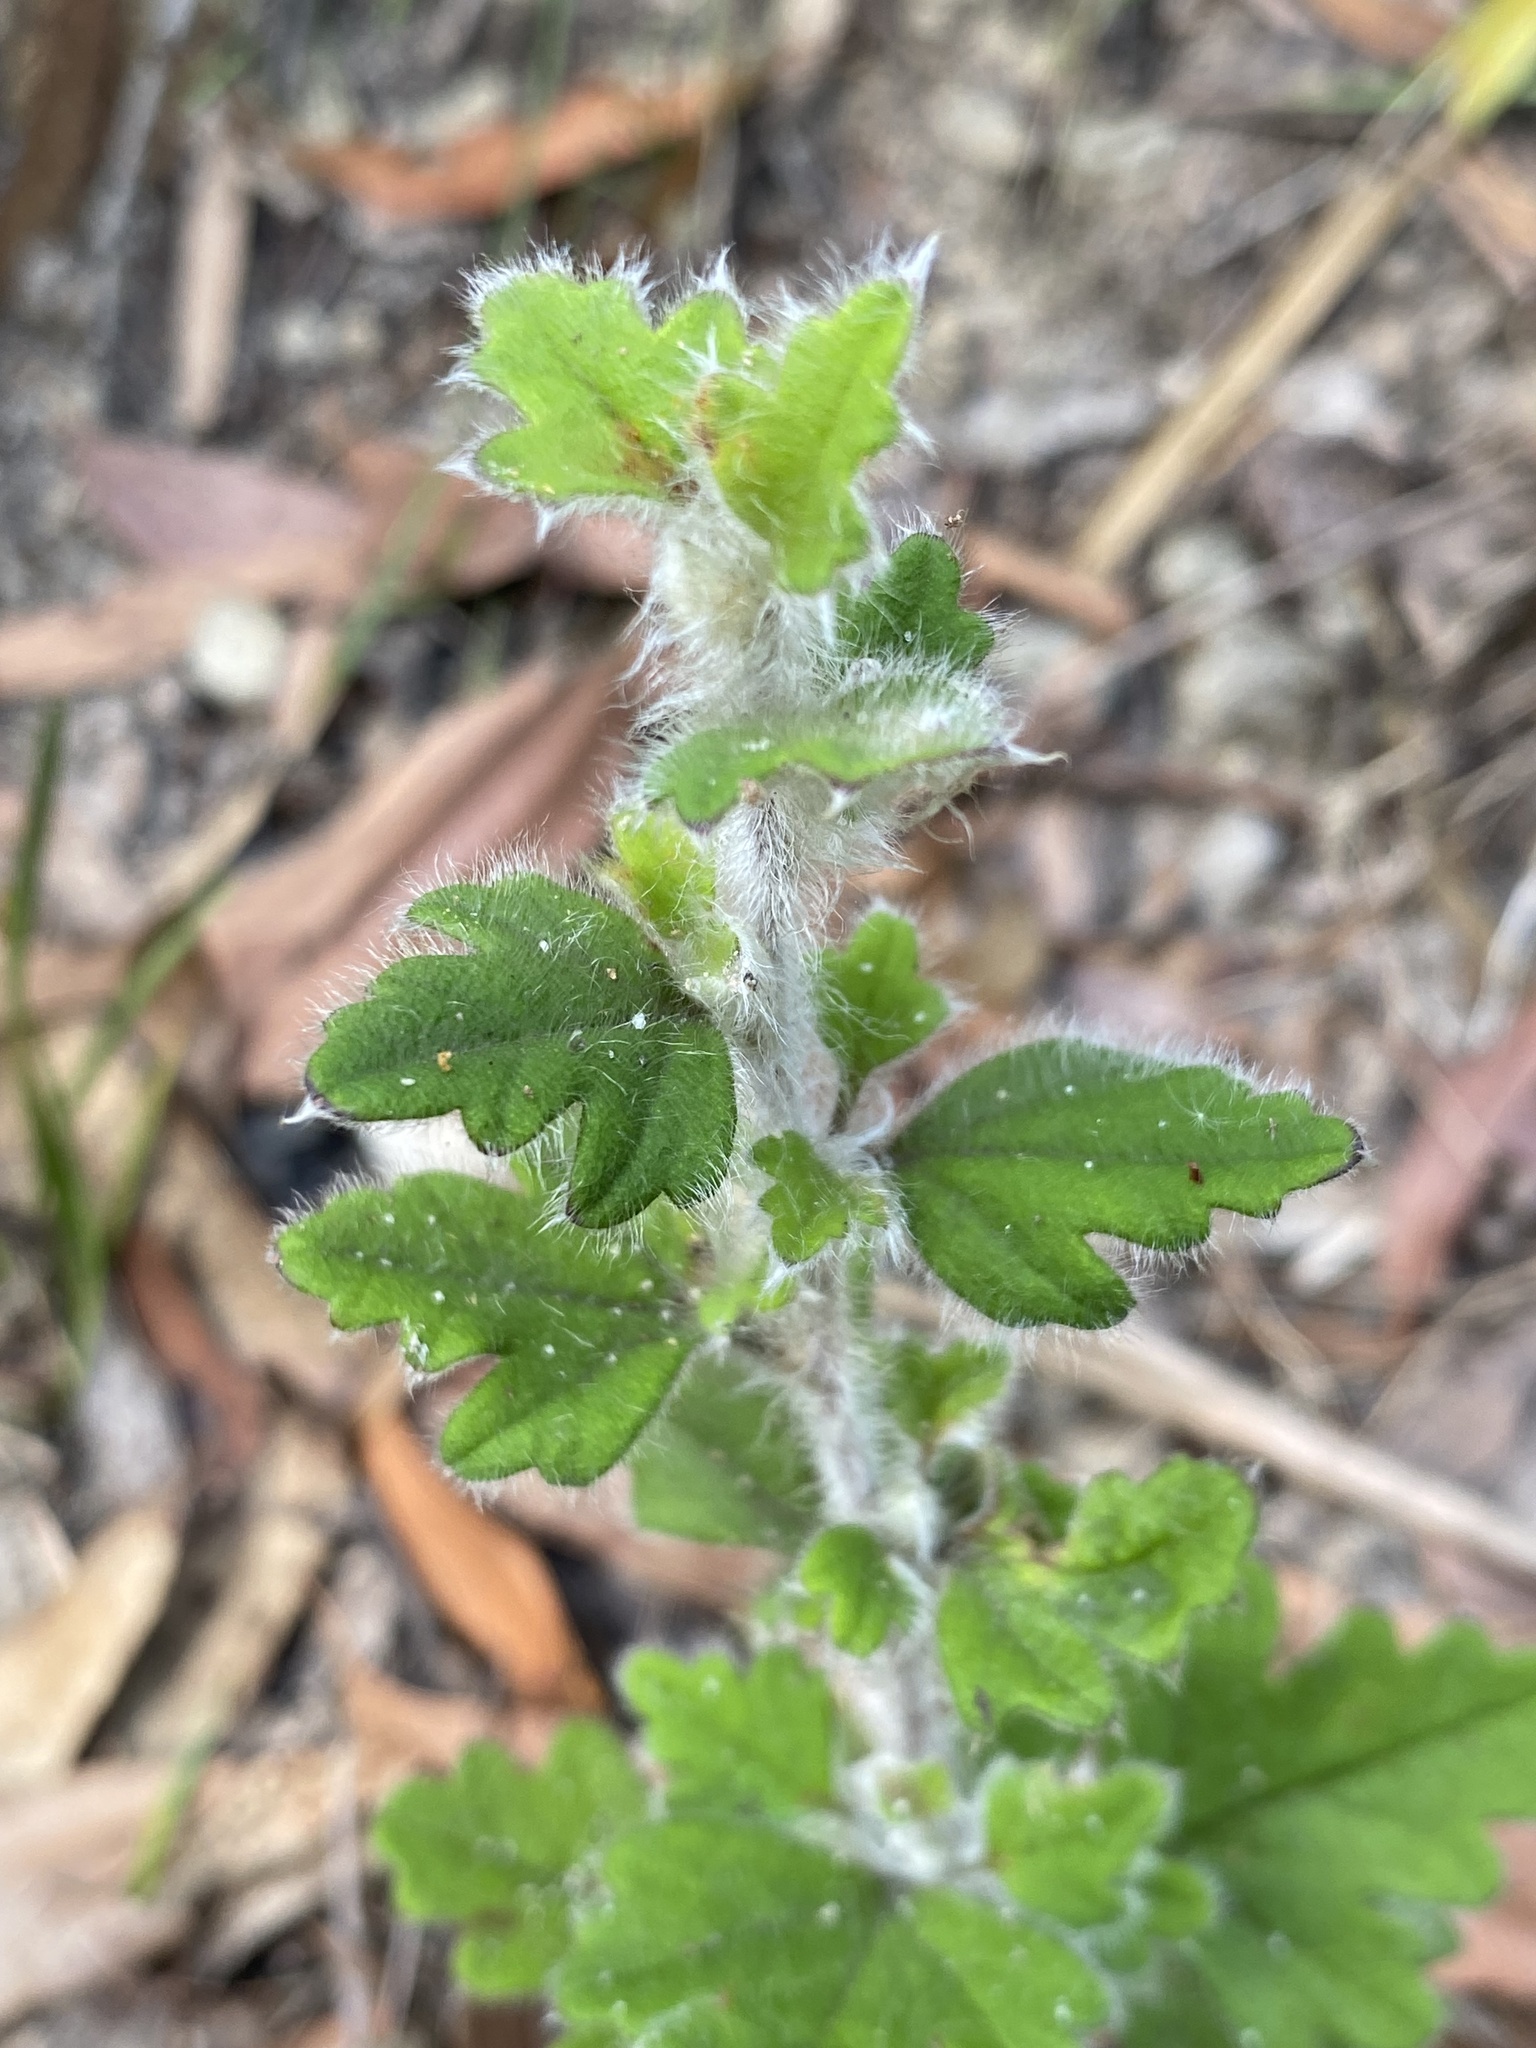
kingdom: Plantae
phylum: Tracheophyta
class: Magnoliopsida
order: Apiales
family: Apiaceae
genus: Xanthosia
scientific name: Xanthosia pilosa
